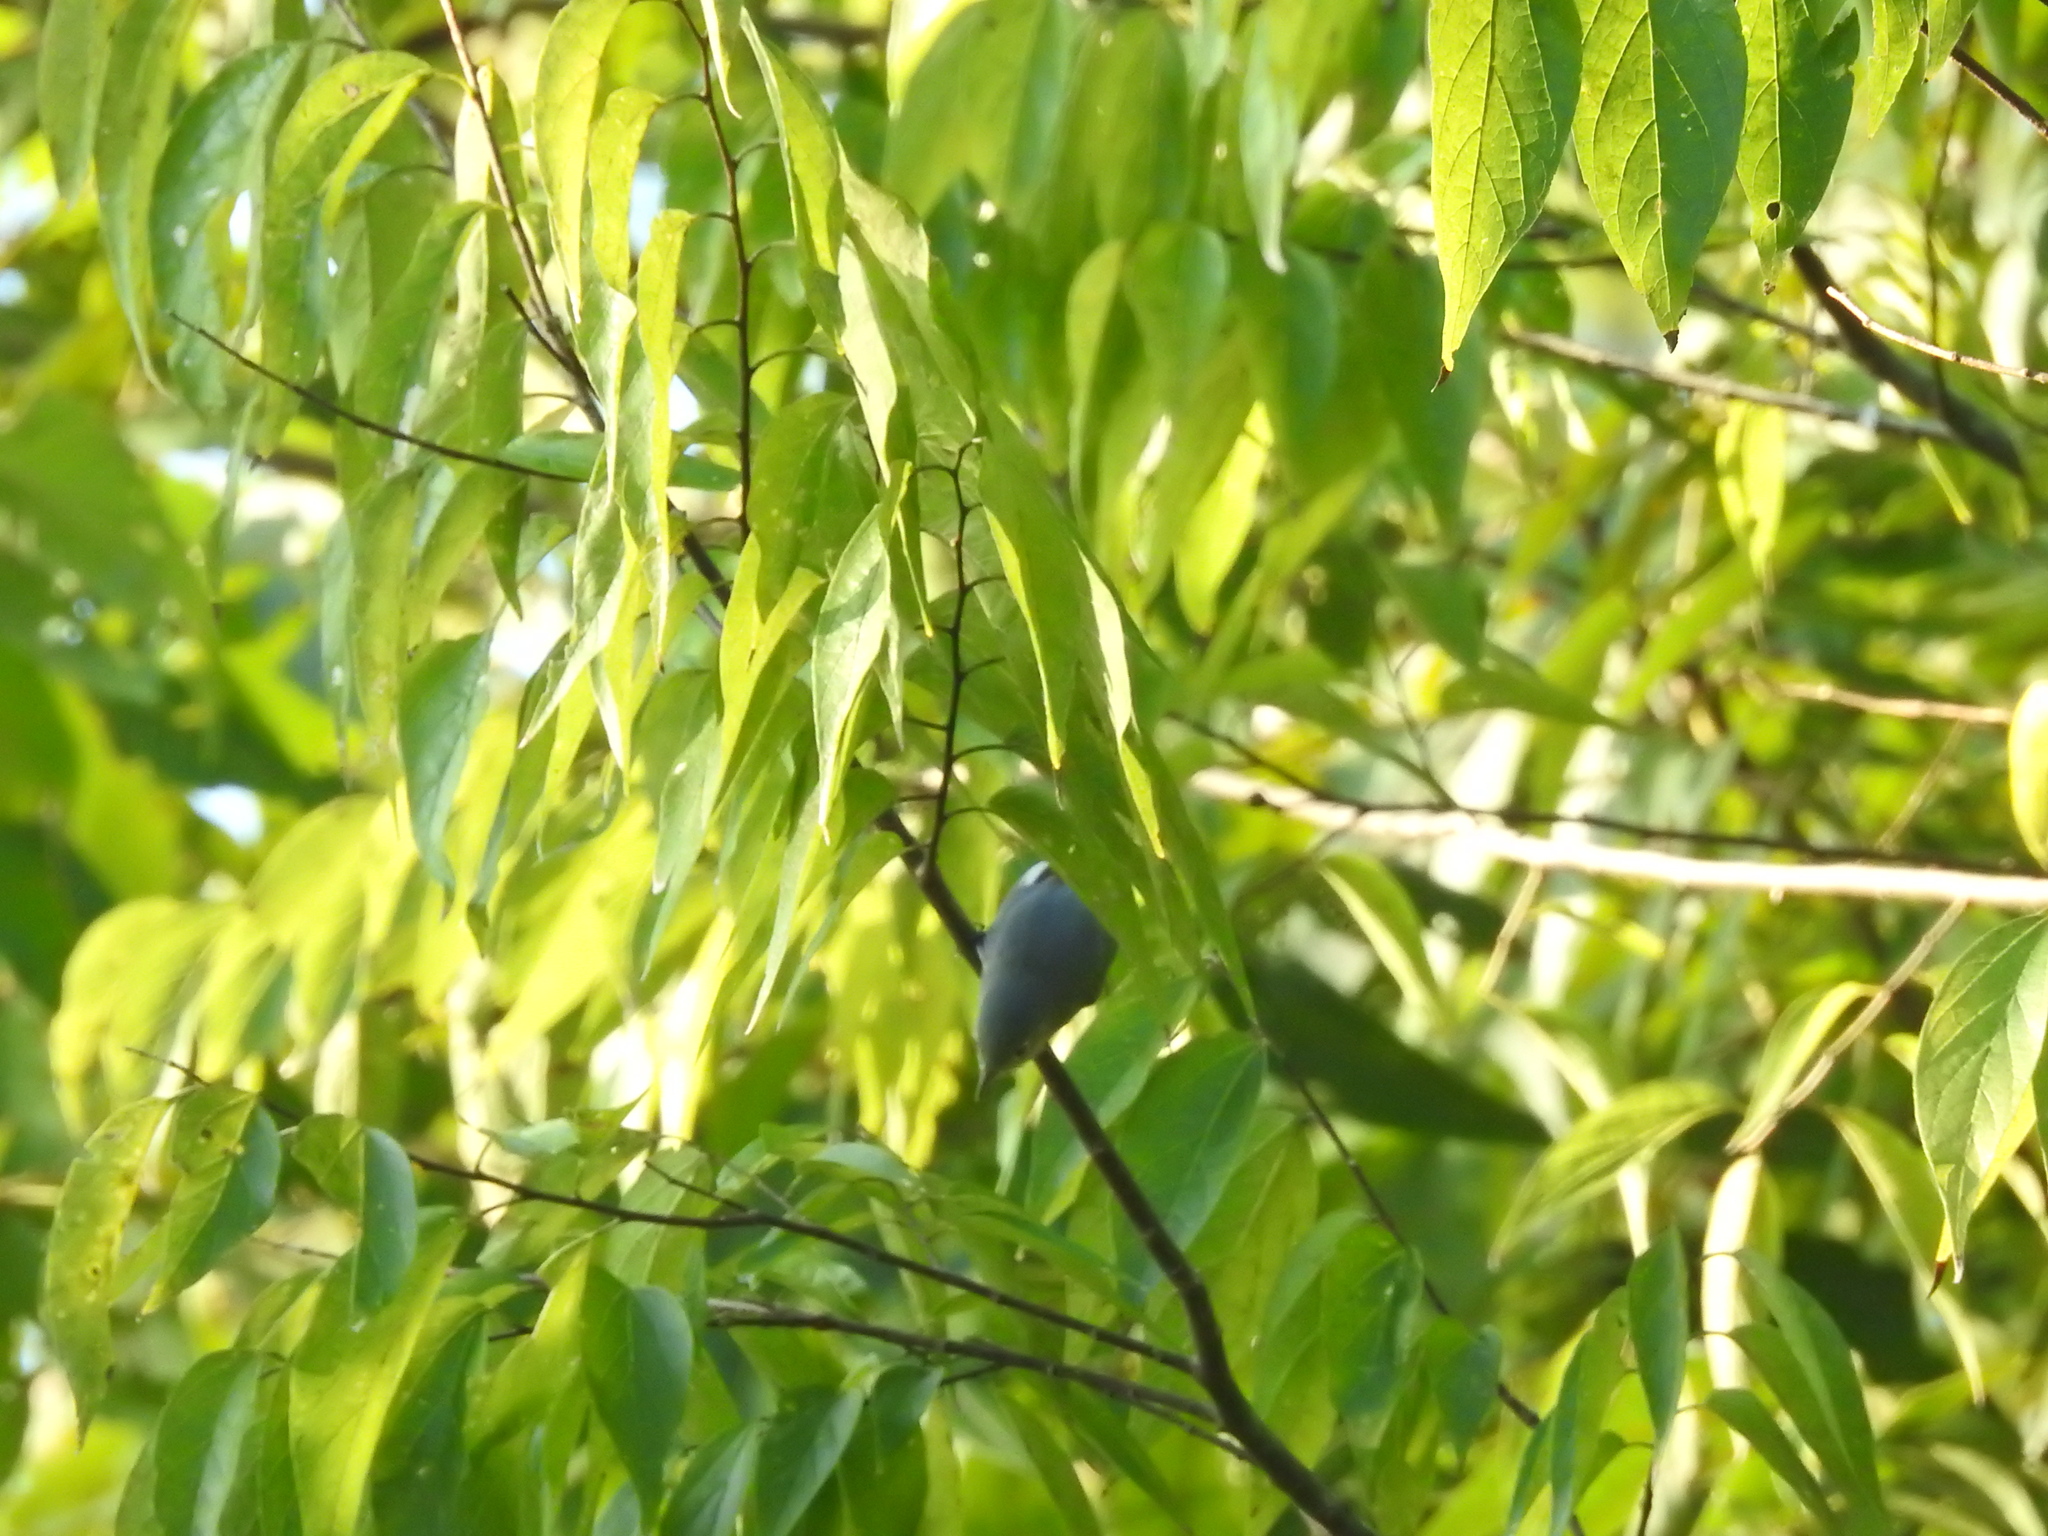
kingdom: Animalia
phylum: Chordata
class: Aves
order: Passeriformes
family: Polioptilidae
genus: Polioptila
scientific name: Polioptila caerulea
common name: Blue-gray gnatcatcher
